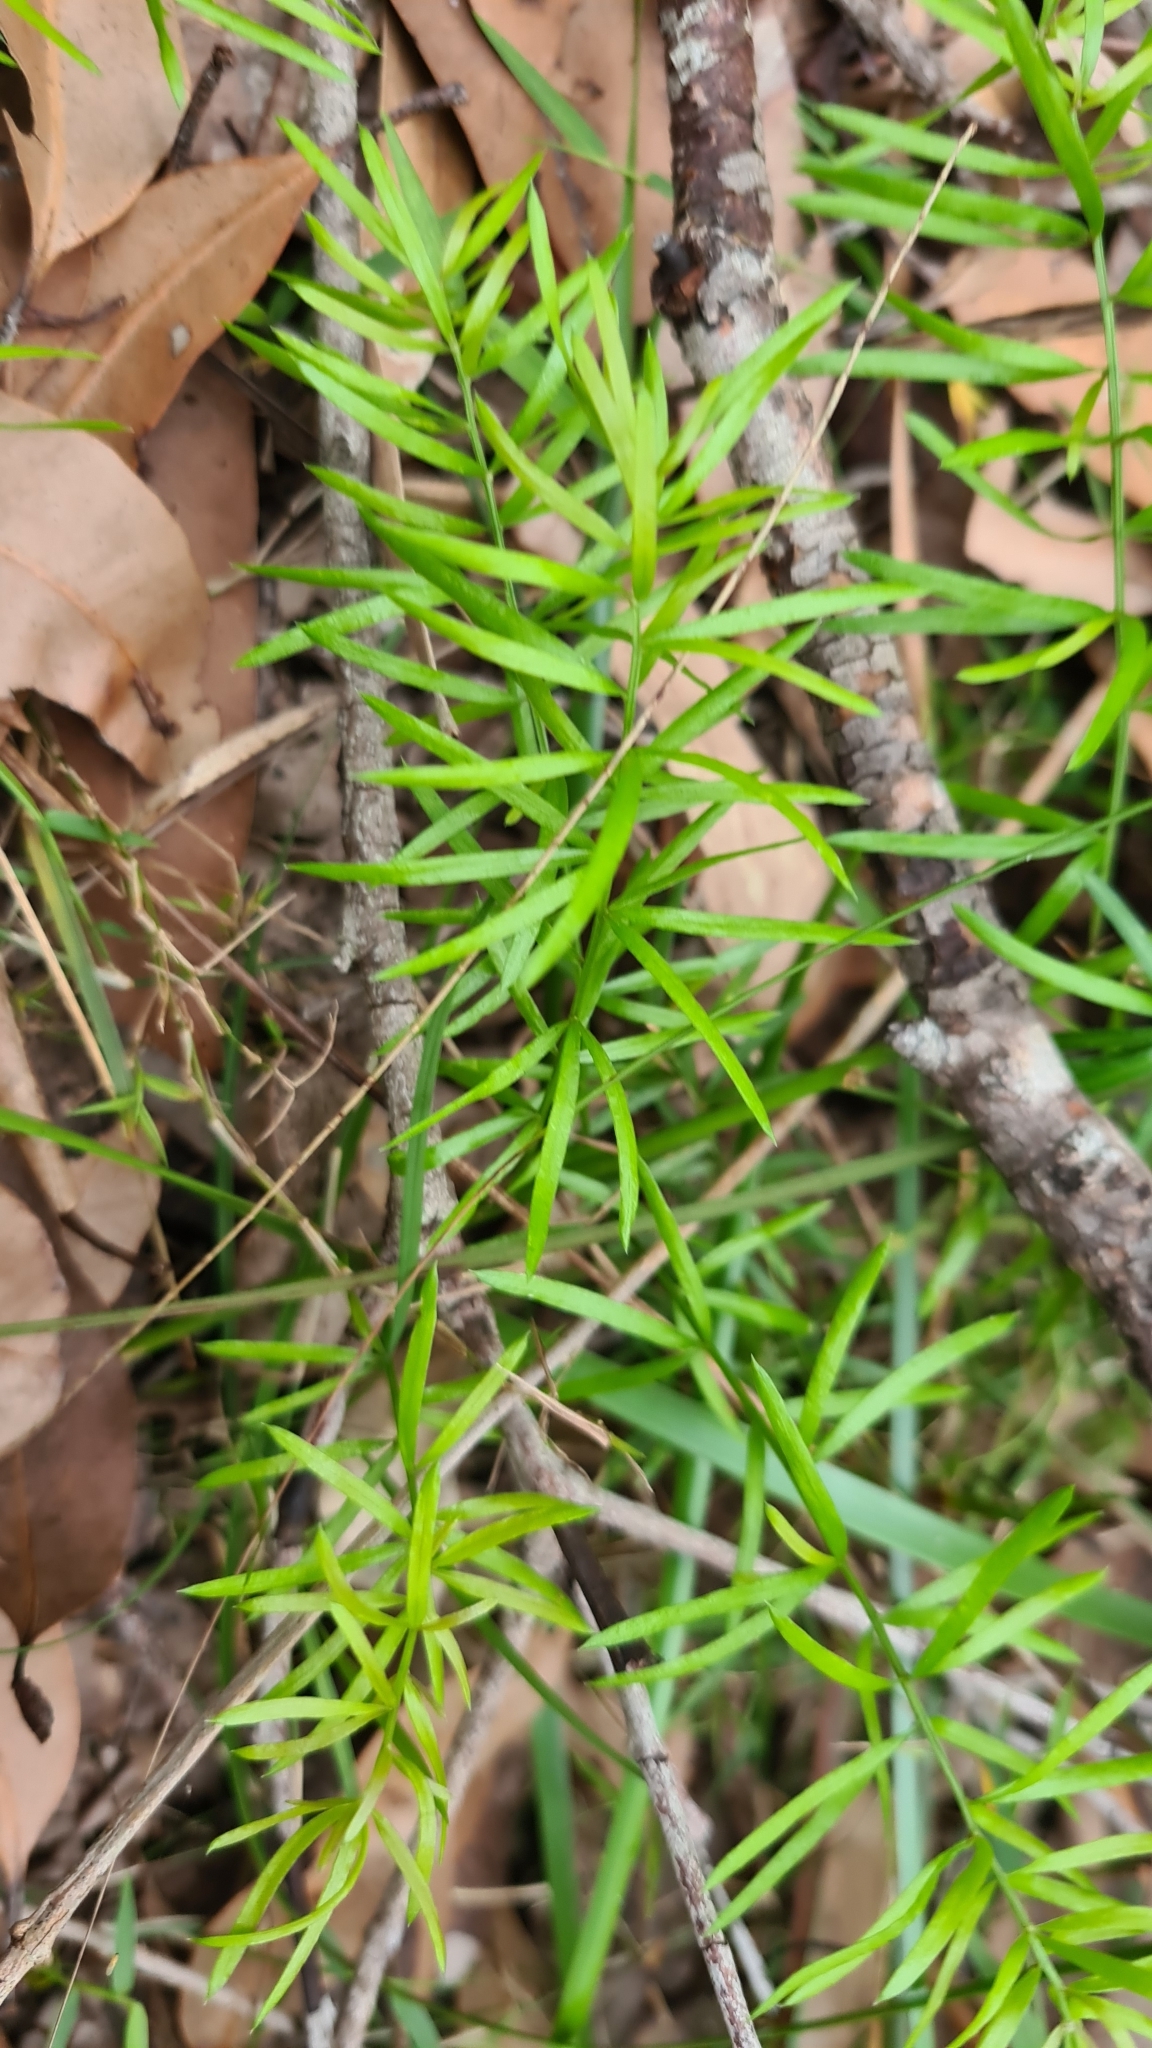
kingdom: Plantae
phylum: Tracheophyta
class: Liliopsida
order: Asparagales
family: Asparagaceae
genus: Asparagus
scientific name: Asparagus aethiopicus
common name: Sprenger's asparagus fern
